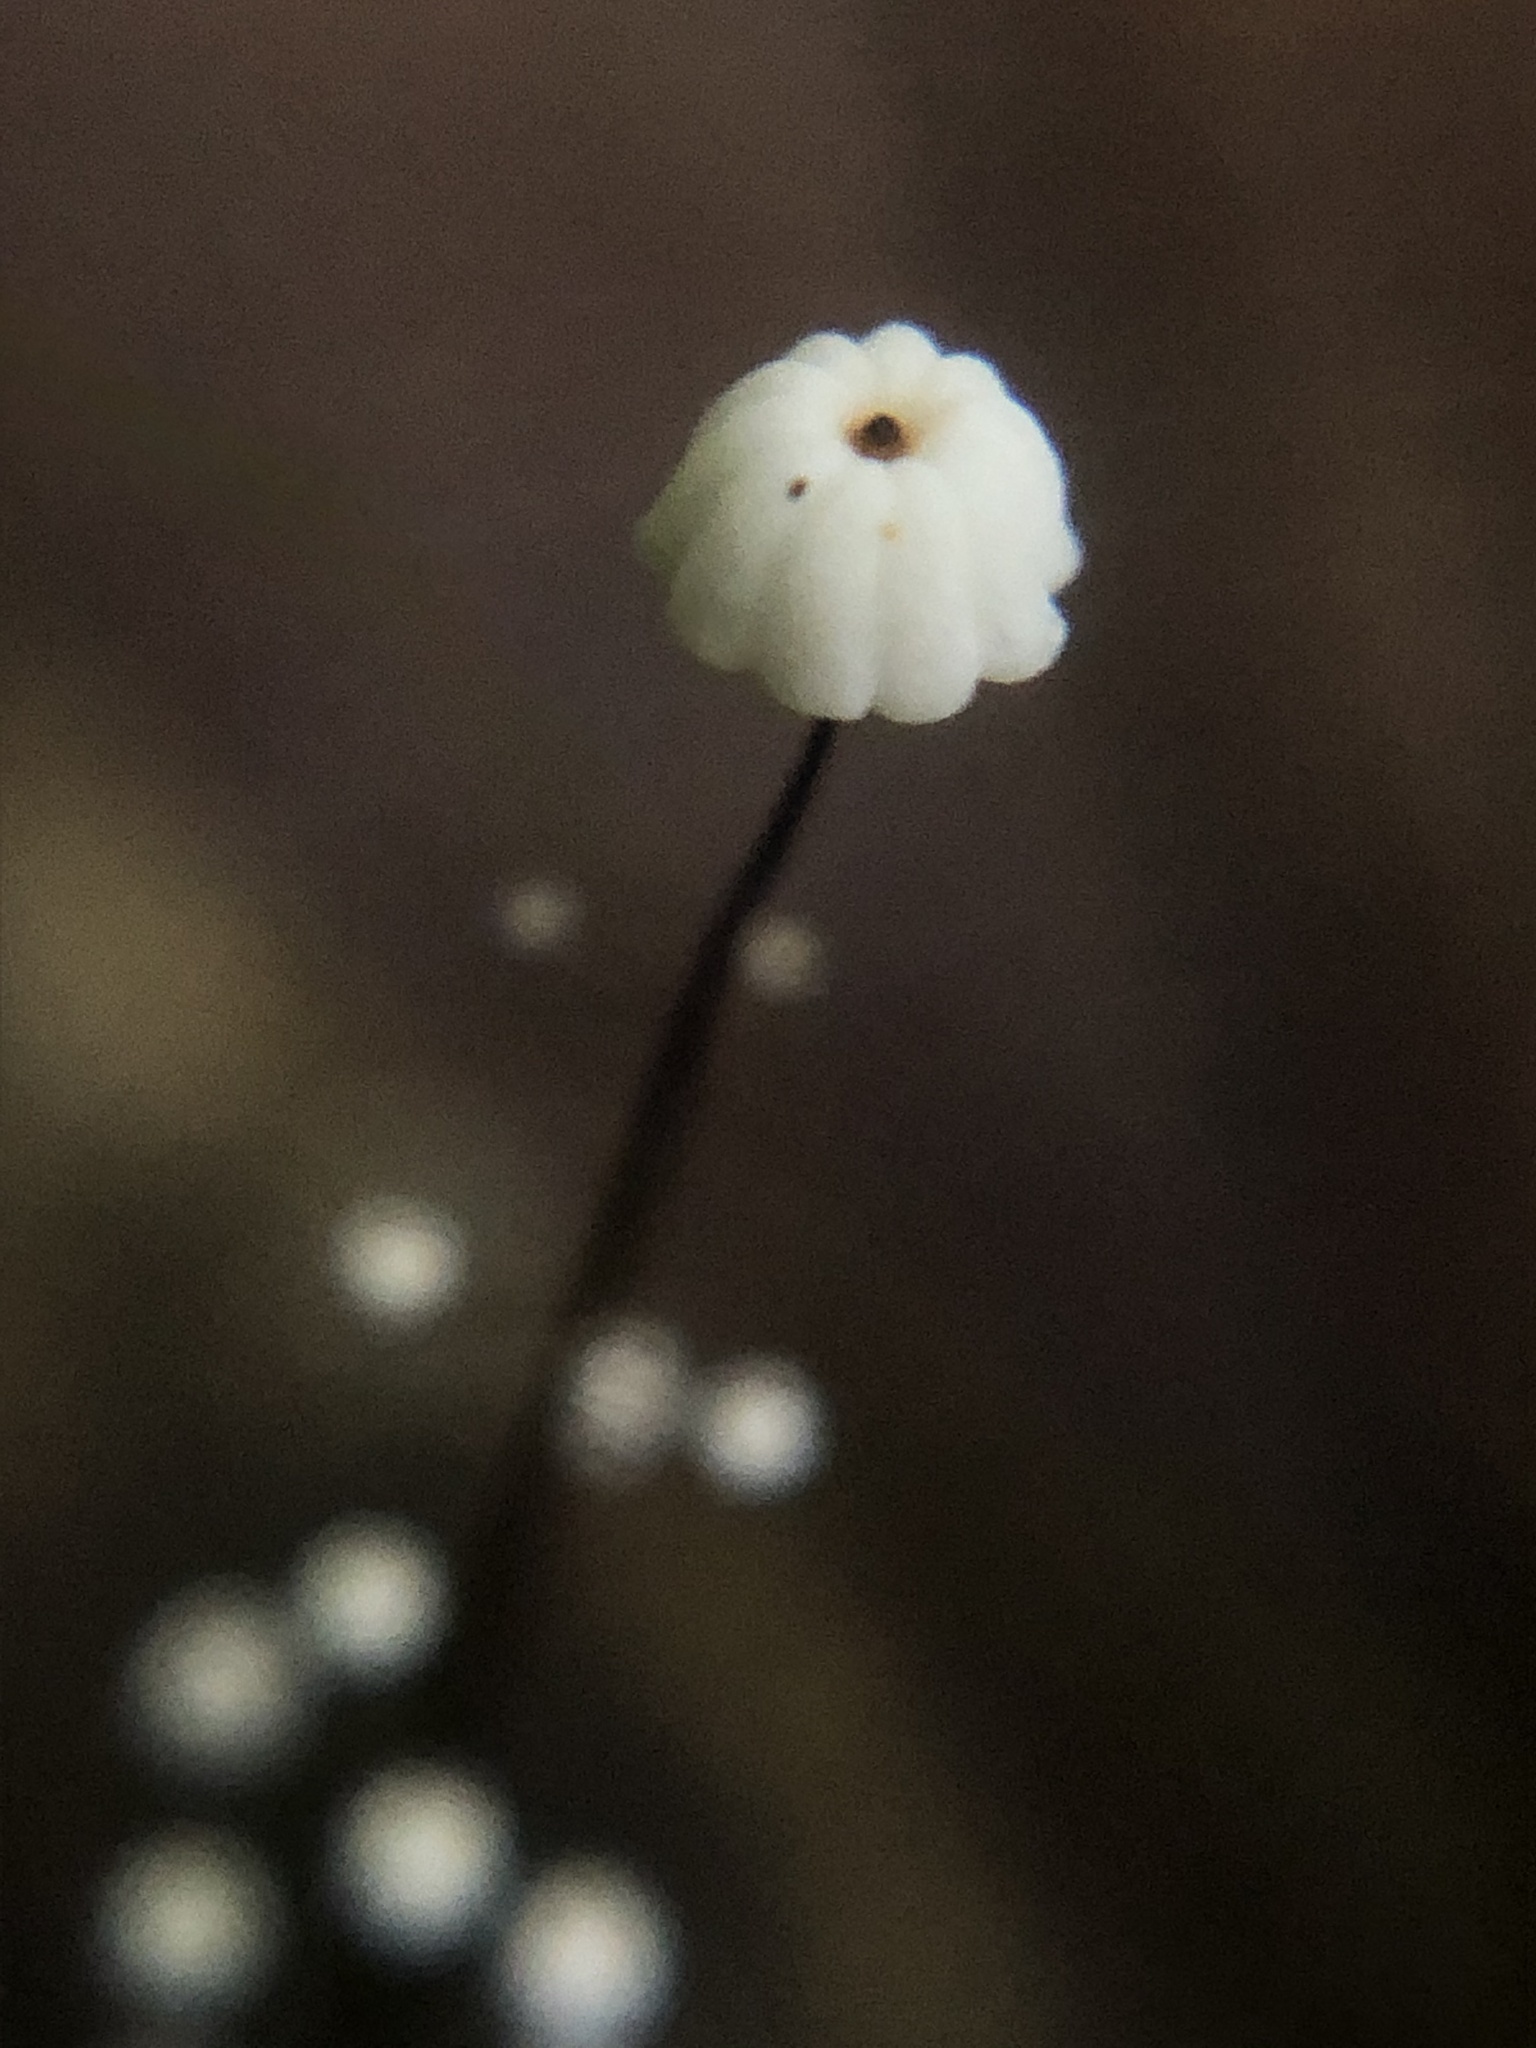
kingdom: Fungi
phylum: Basidiomycota
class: Agaricomycetes
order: Agaricales
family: Marasmiaceae
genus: Marasmius
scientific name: Marasmius
